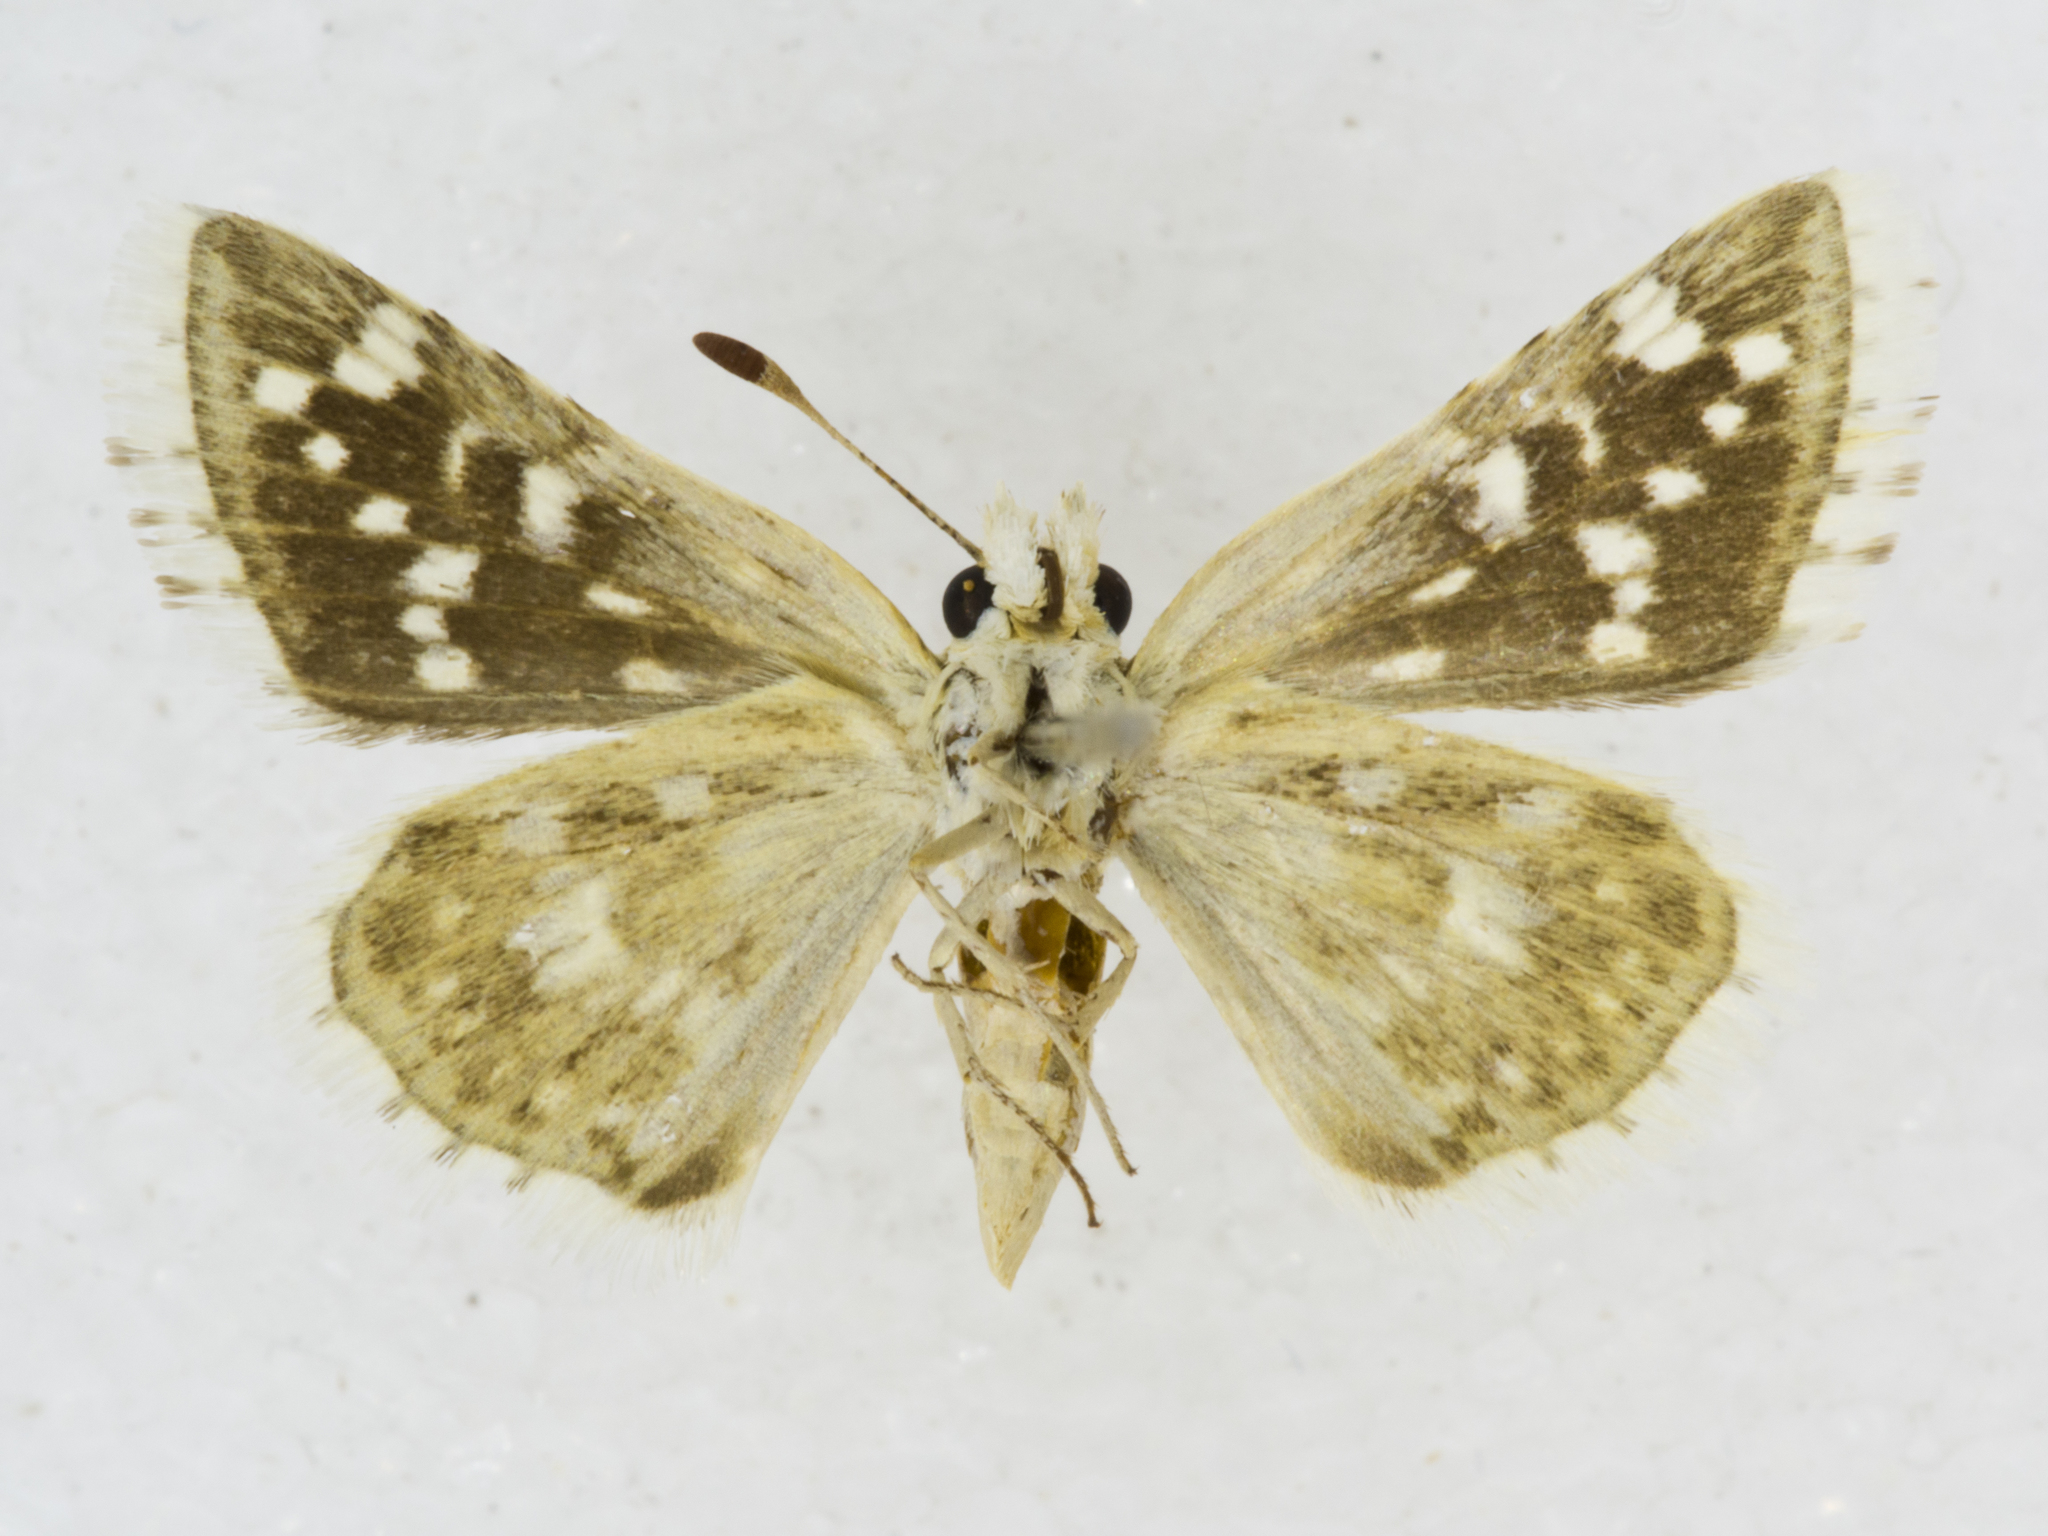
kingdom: Animalia
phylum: Arthropoda
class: Insecta
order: Lepidoptera
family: Hesperiidae
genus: Pyrgus
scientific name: Pyrgus scriptura
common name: Small checkered-skipper
